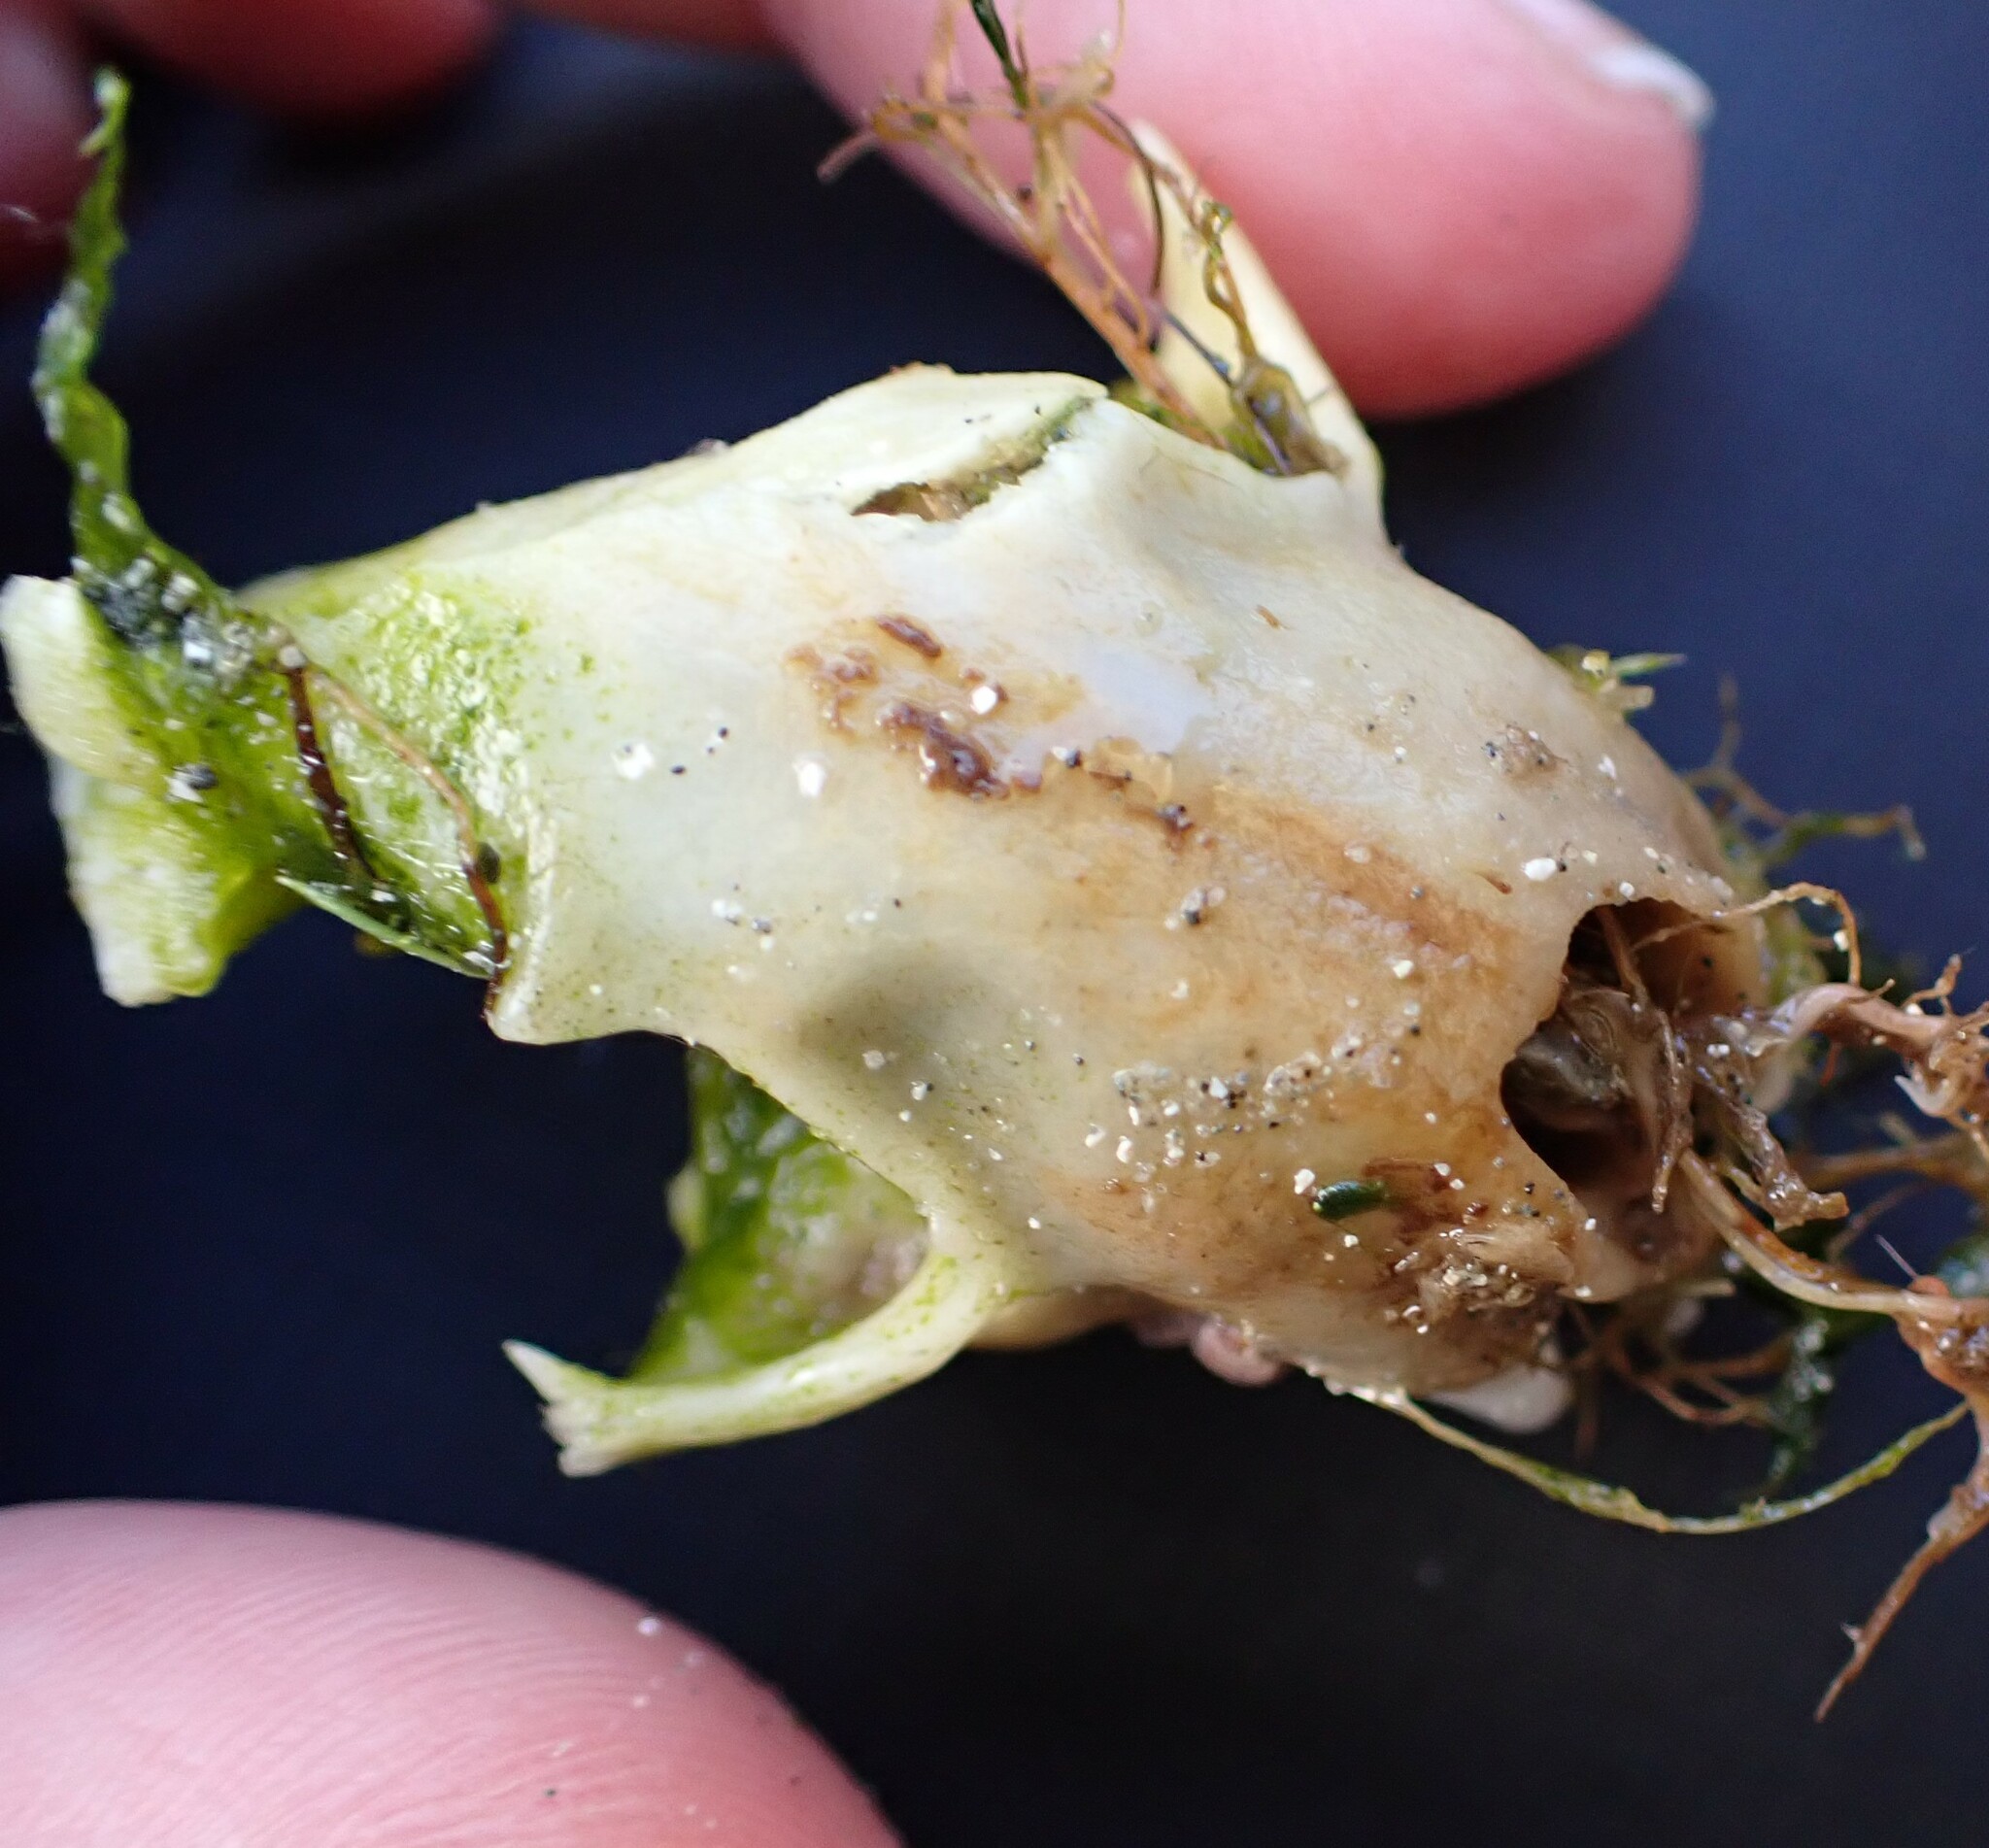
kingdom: Animalia
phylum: Chordata
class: Mammalia
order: Carnivora
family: Mustelidae
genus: Mustela
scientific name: Mustela
